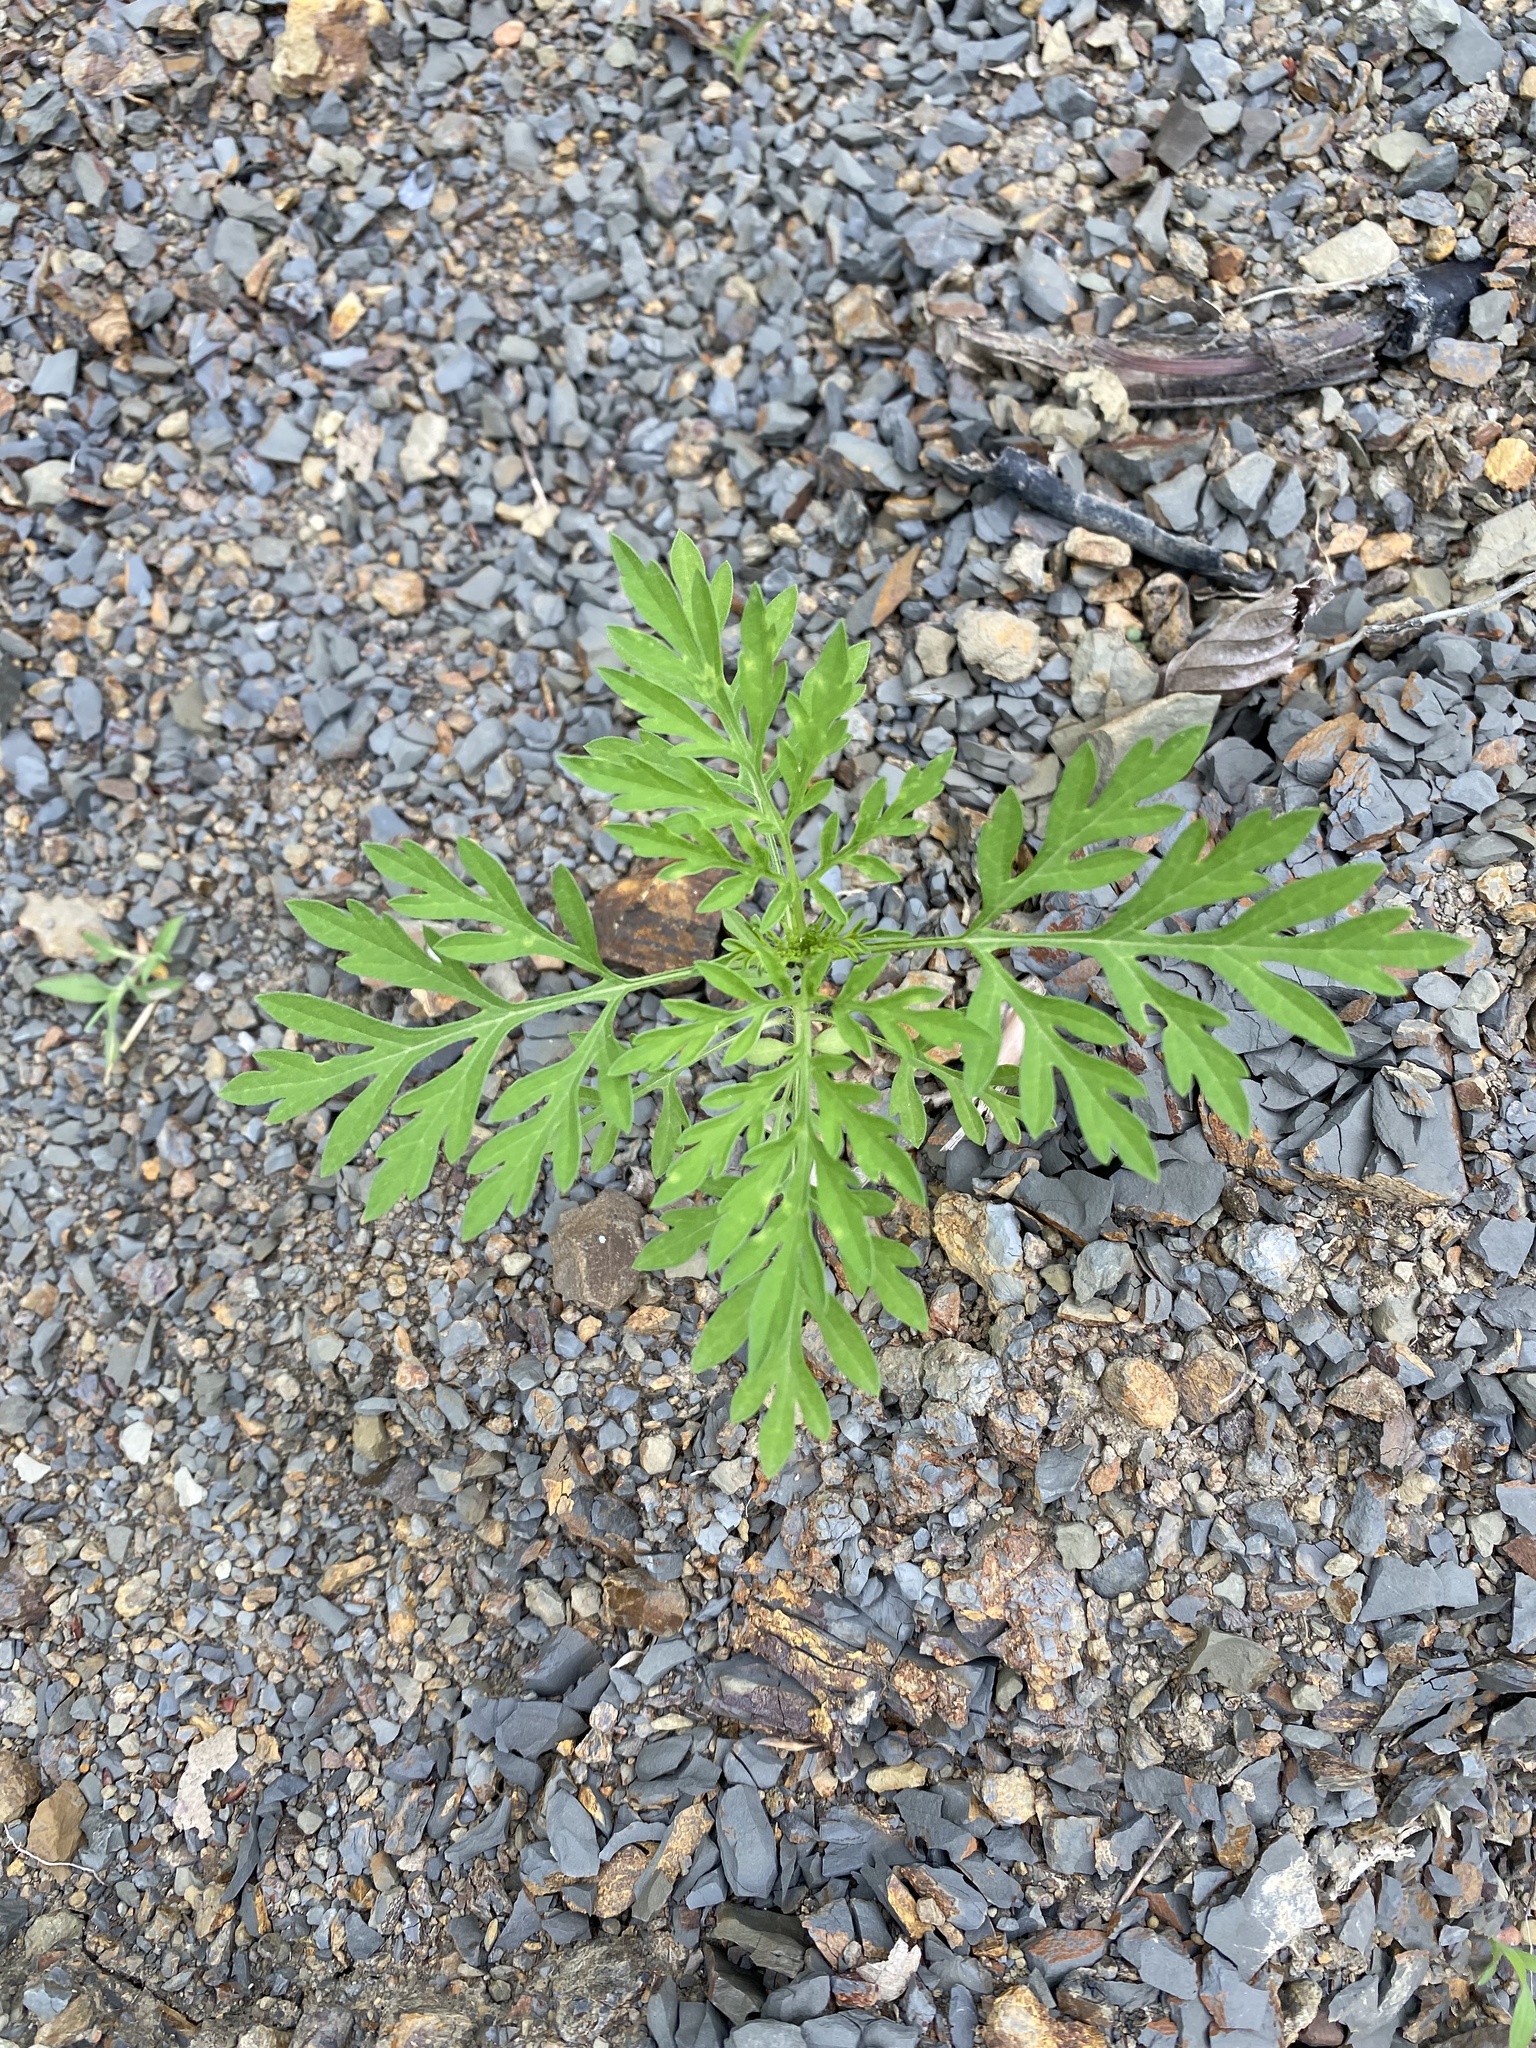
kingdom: Plantae
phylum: Tracheophyta
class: Magnoliopsida
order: Asterales
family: Asteraceae
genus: Ambrosia
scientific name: Ambrosia artemisiifolia
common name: Annual ragweed
